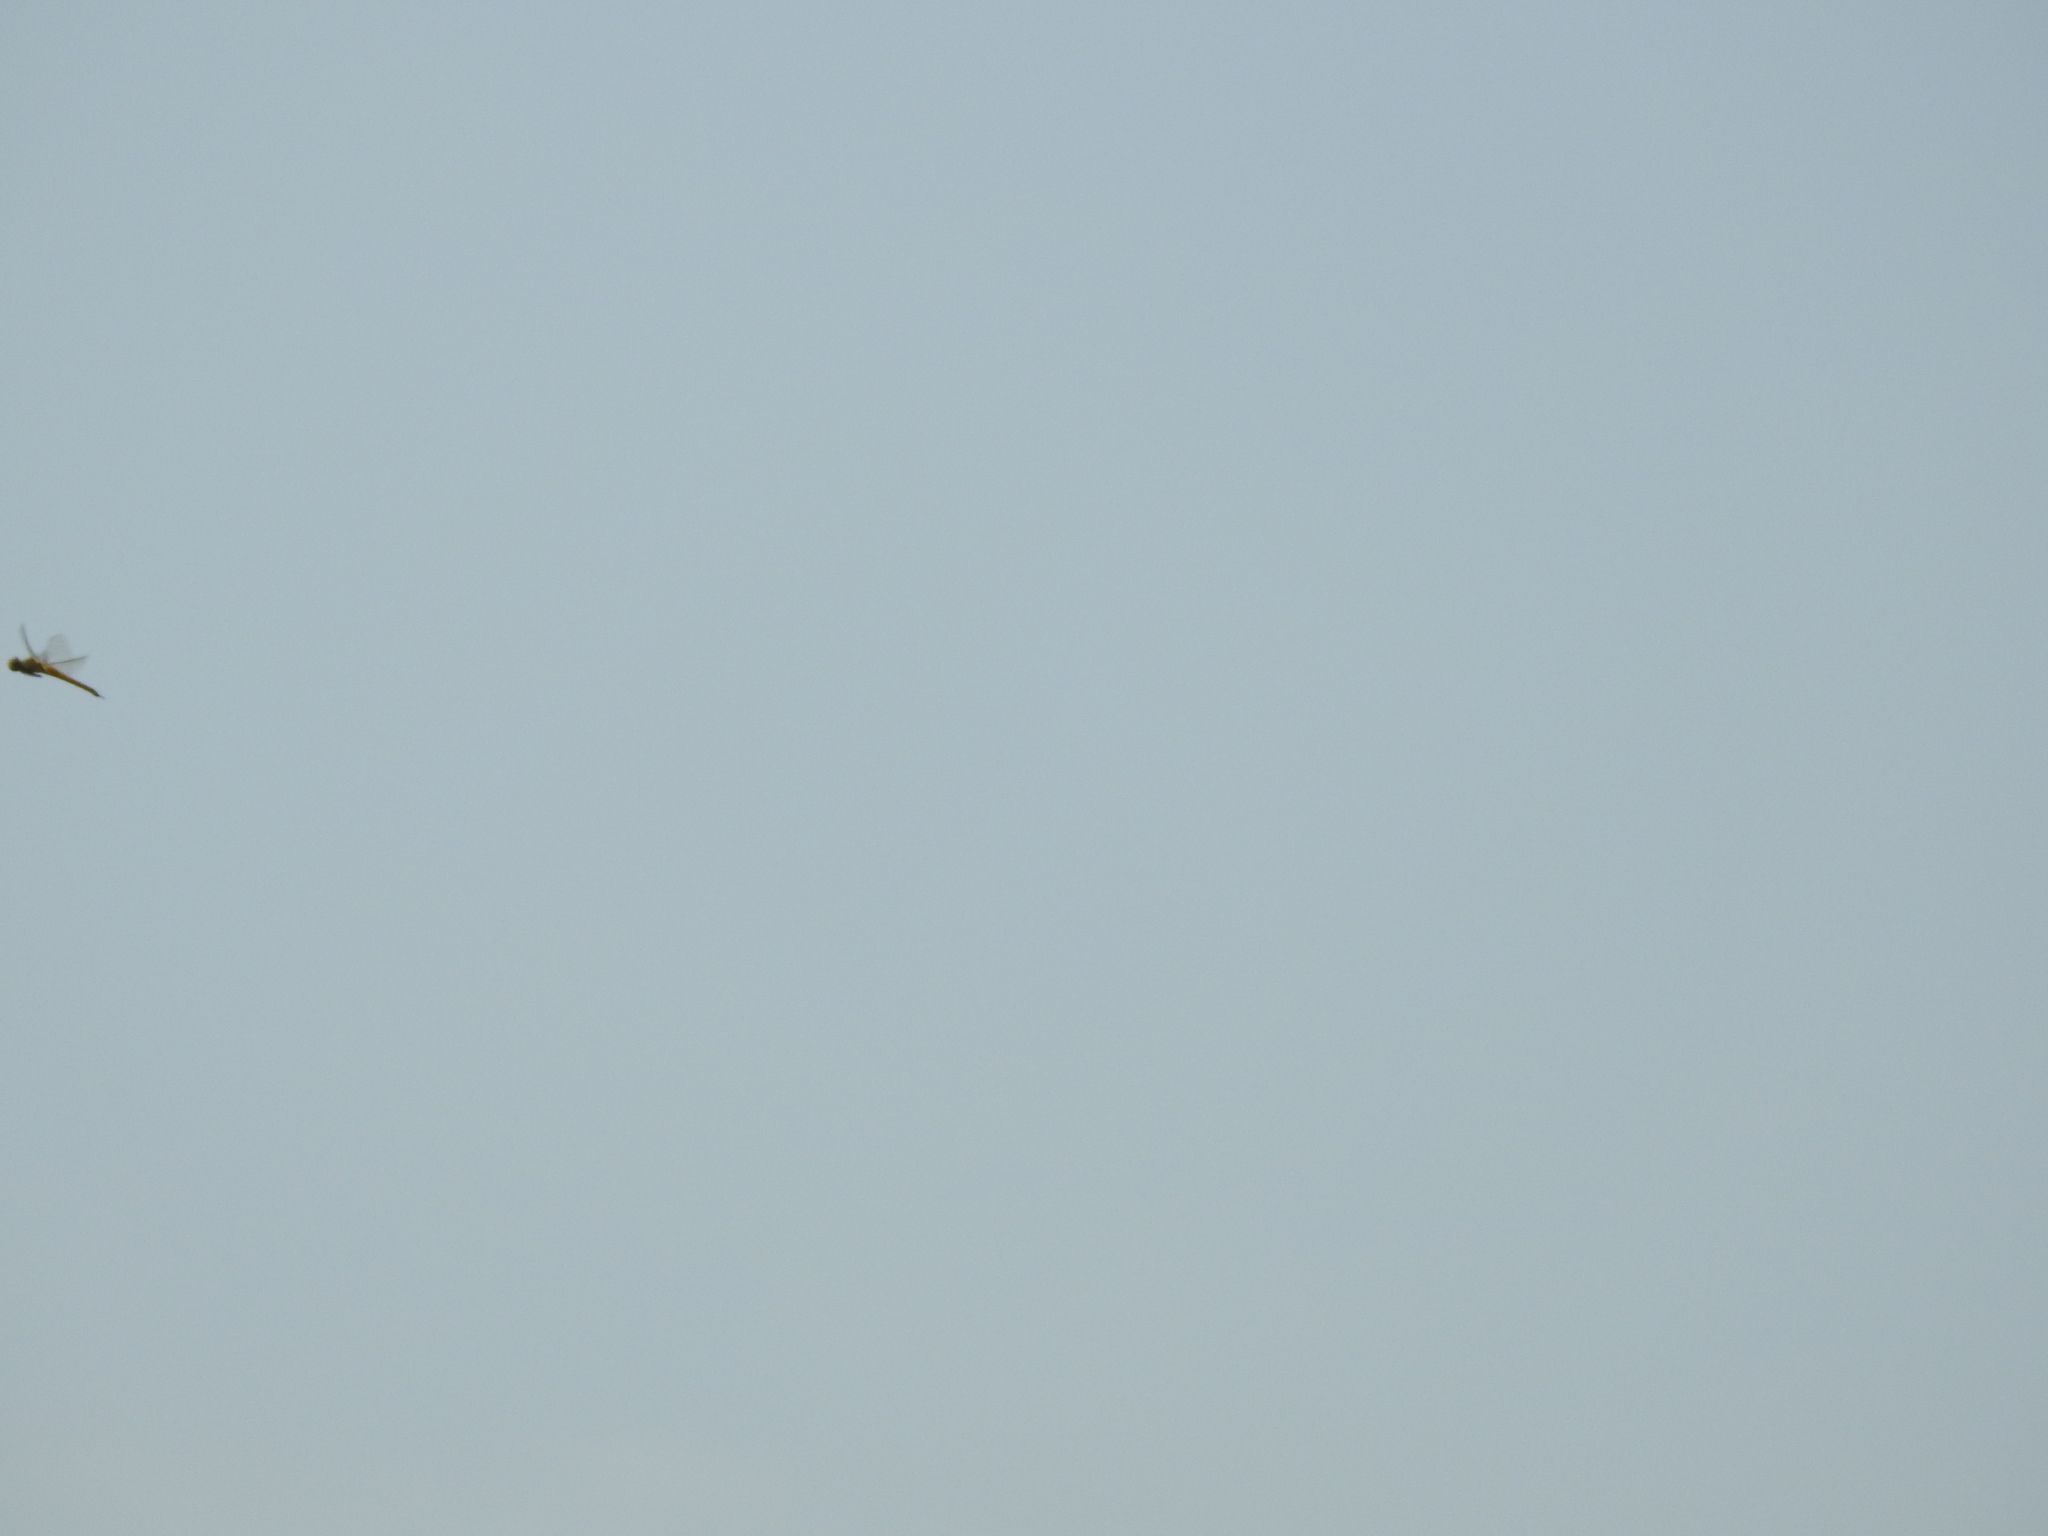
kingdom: Animalia
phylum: Arthropoda
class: Insecta
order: Odonata
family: Libellulidae
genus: Pantala
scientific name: Pantala flavescens
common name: Wandering glider
